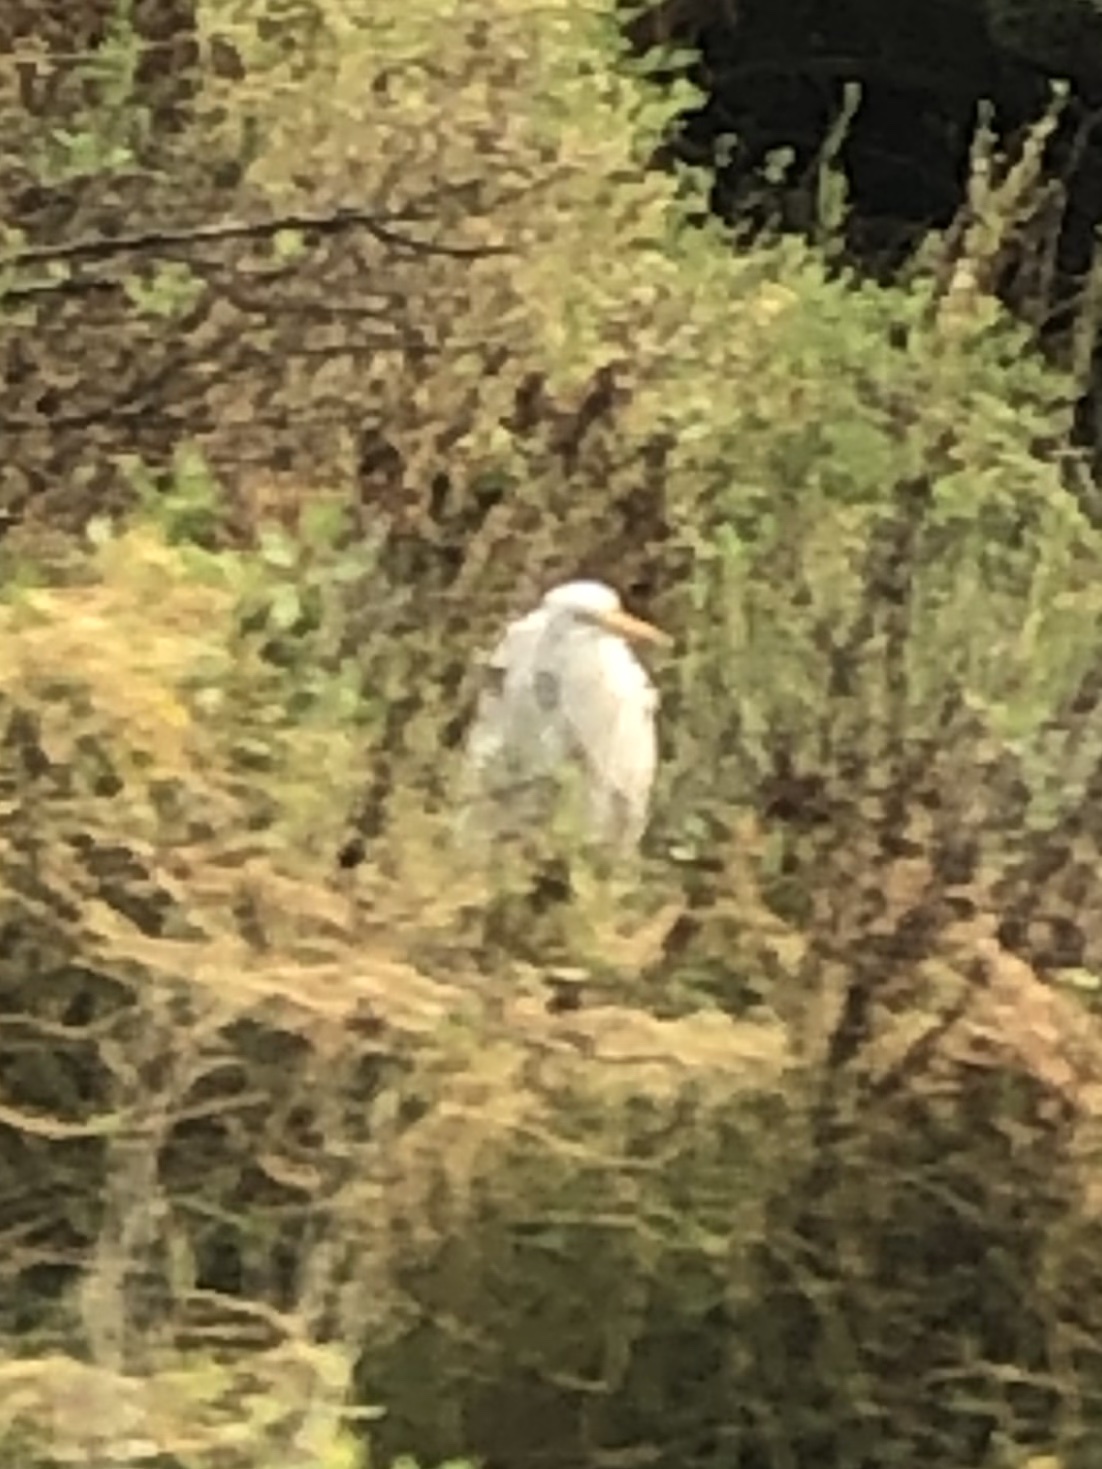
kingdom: Animalia
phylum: Chordata
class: Aves
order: Pelecaniformes
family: Ardeidae
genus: Ardea
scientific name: Ardea alba
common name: Great egret
